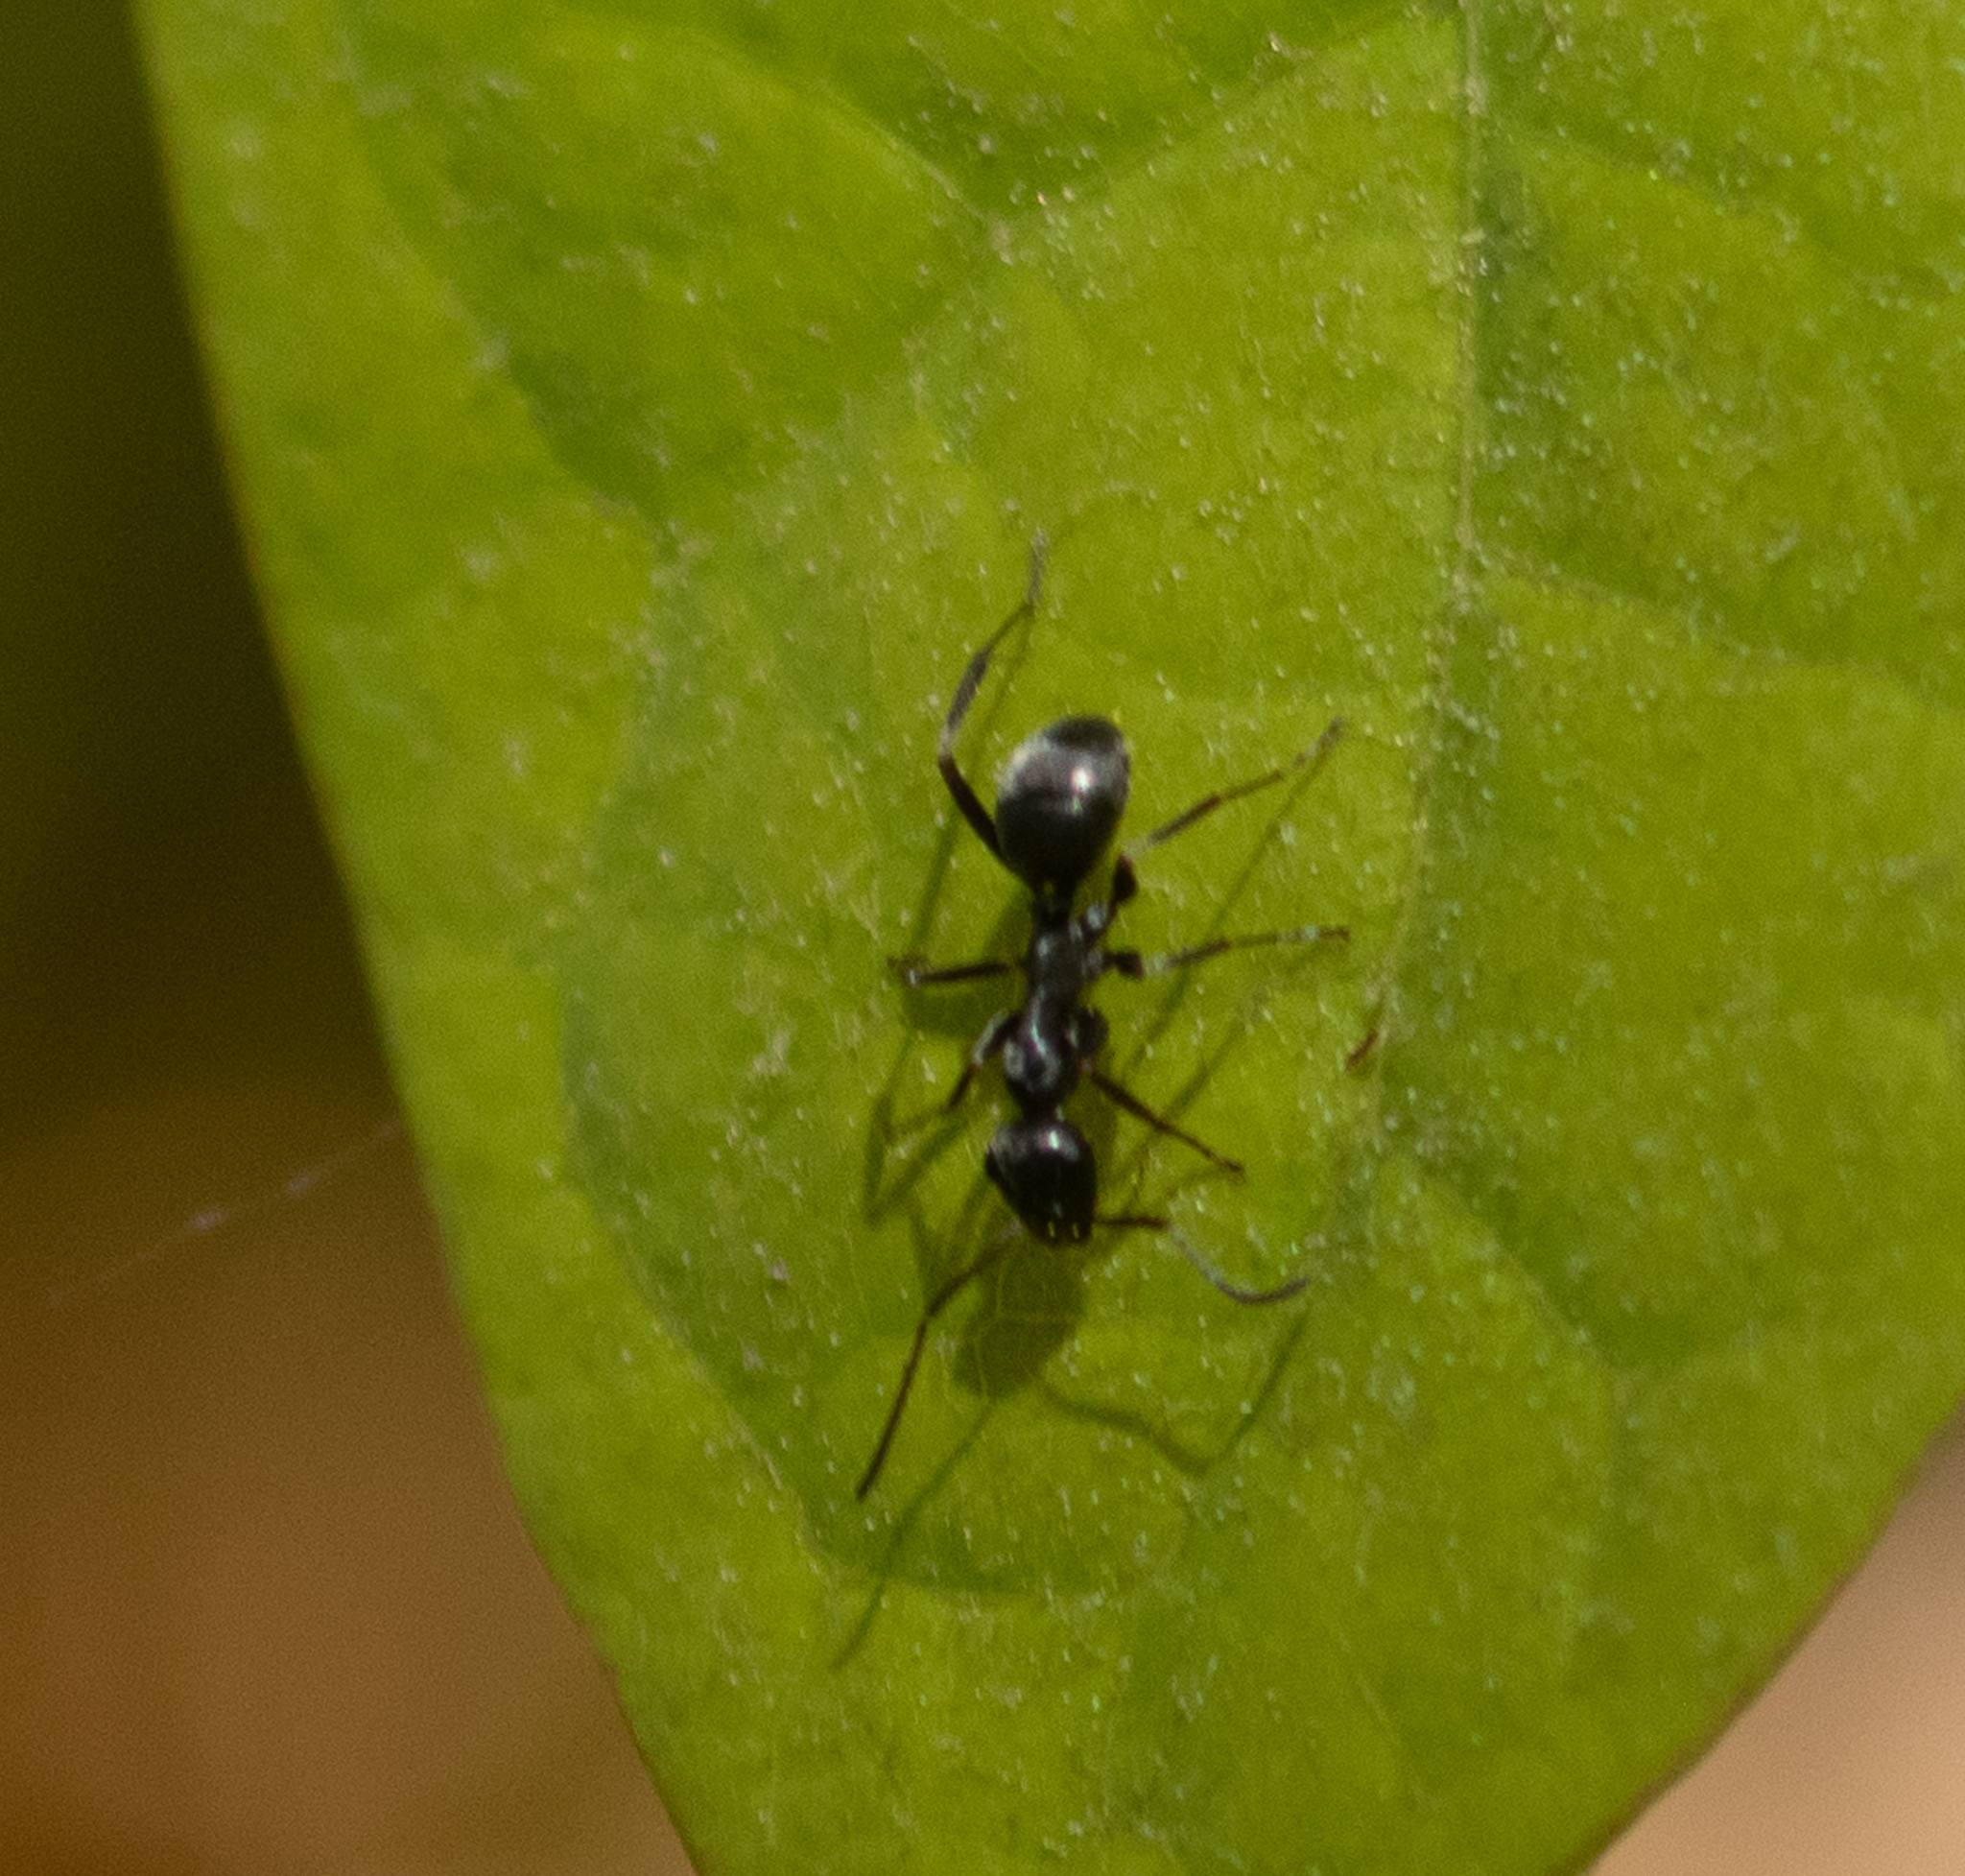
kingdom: Animalia
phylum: Arthropoda
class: Insecta
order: Hymenoptera
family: Formicidae
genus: Formica
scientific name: Formica
